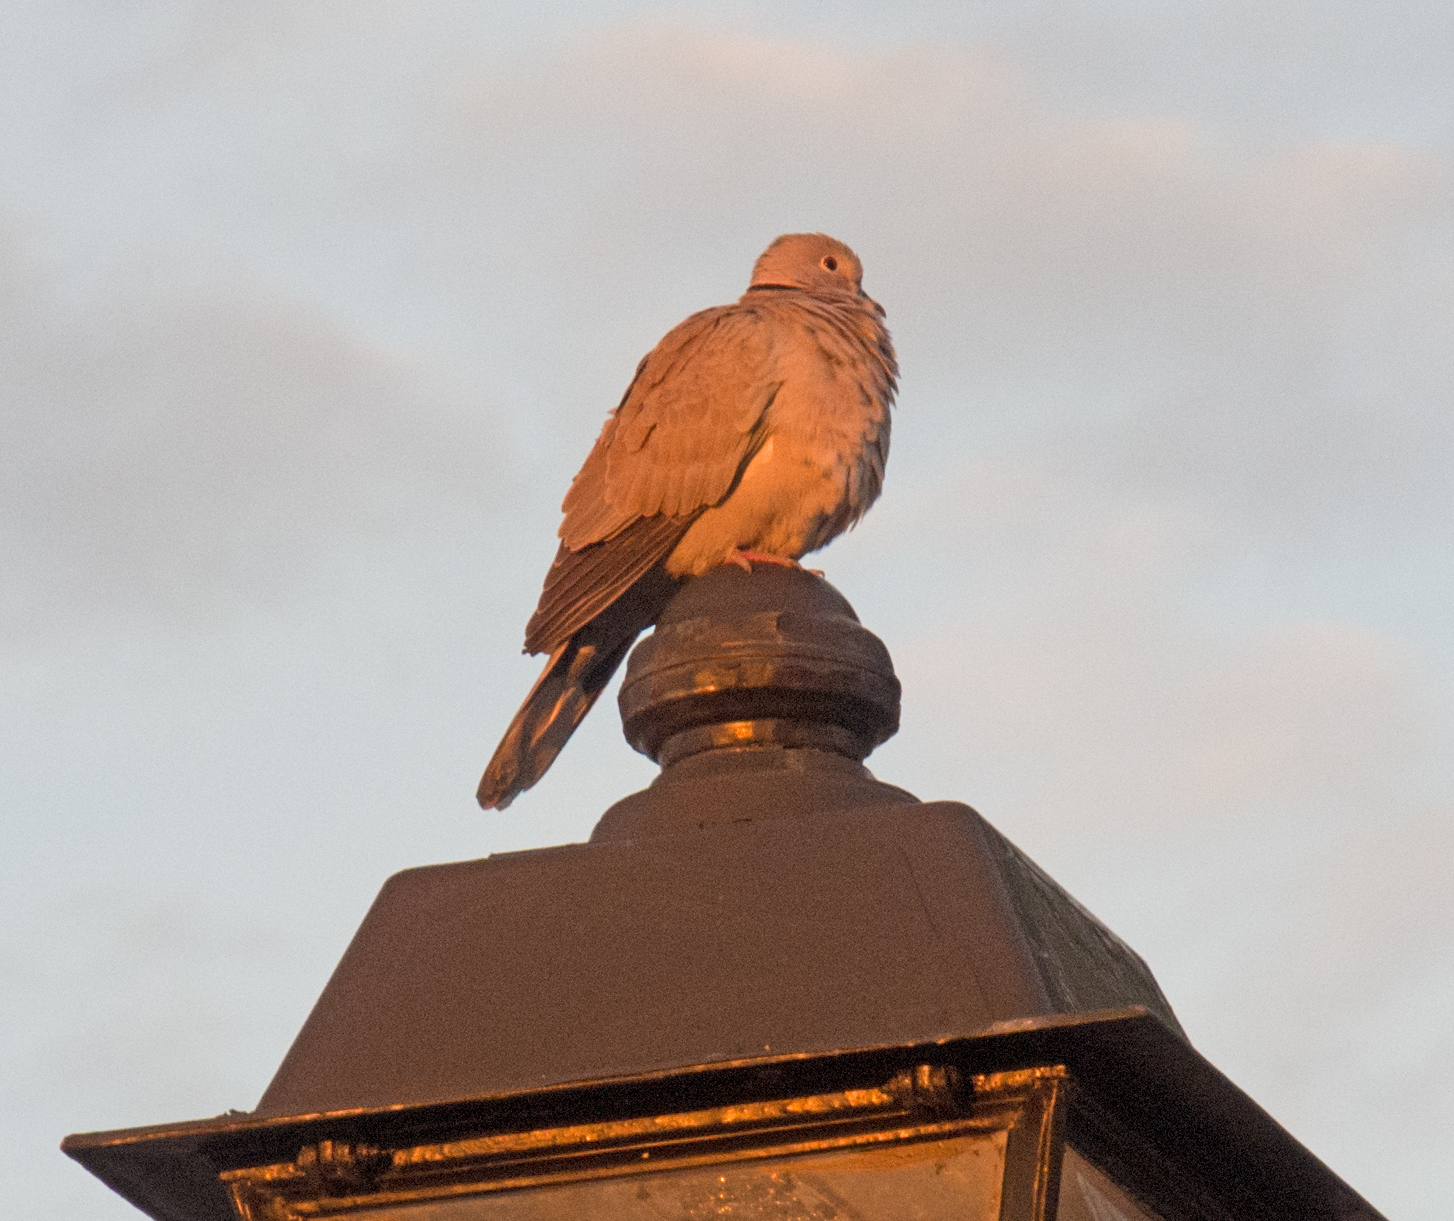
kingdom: Animalia
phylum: Chordata
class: Aves
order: Columbiformes
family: Columbidae
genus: Streptopelia
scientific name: Streptopelia decaocto
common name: Eurasian collared dove
